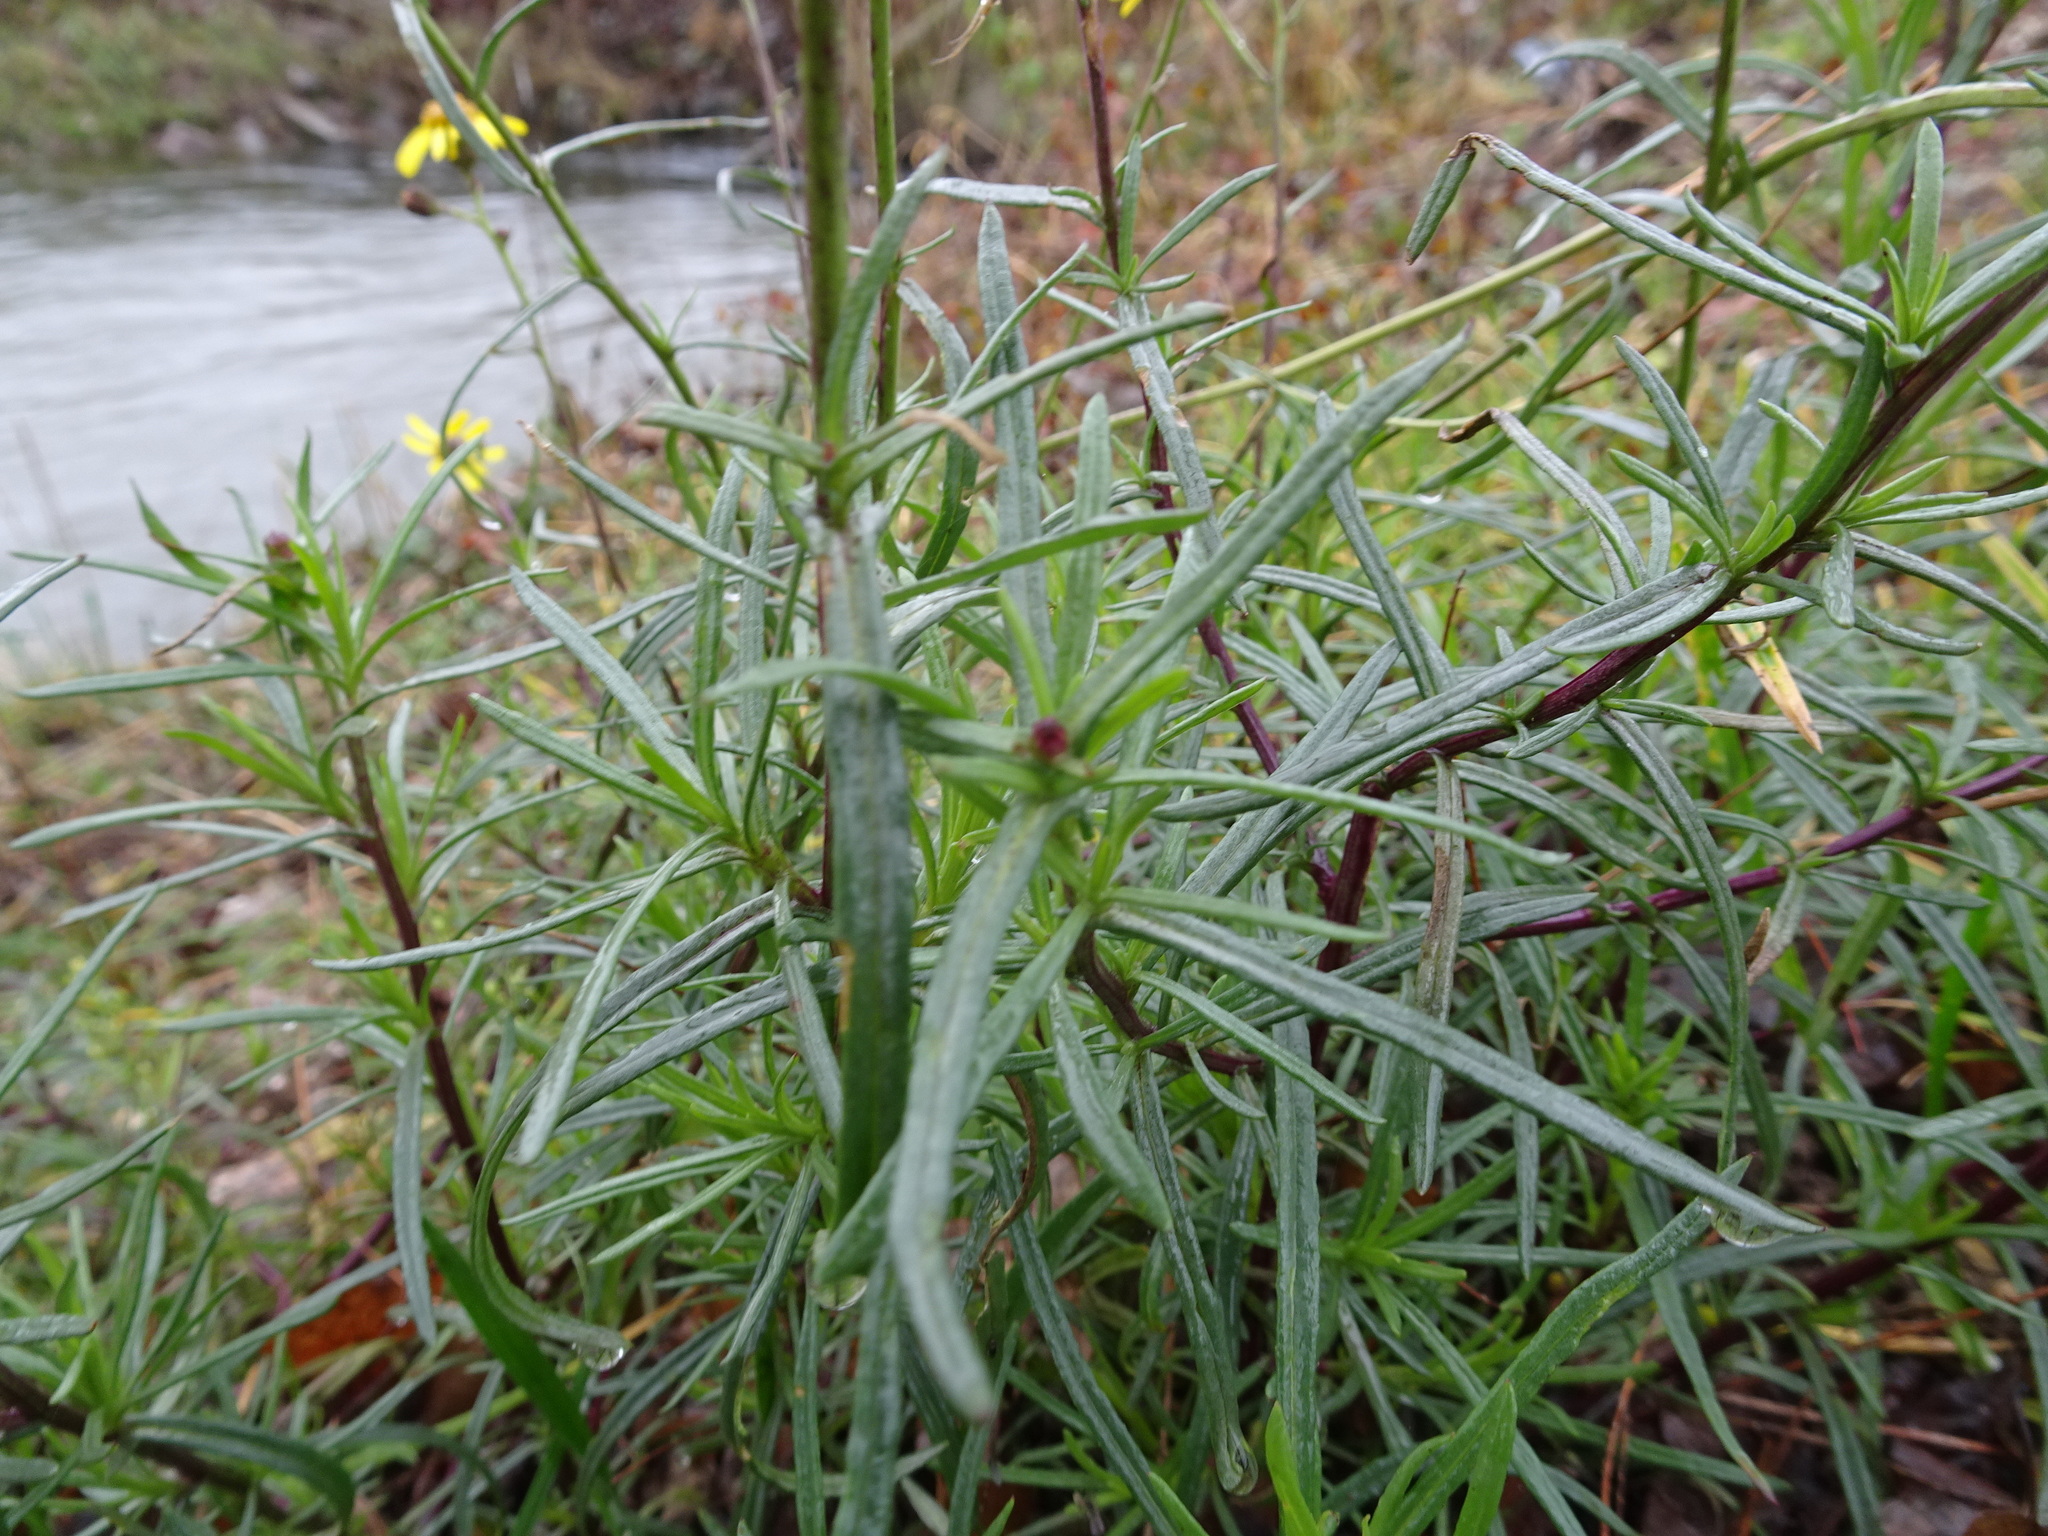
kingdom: Plantae
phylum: Tracheophyta
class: Magnoliopsida
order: Asterales
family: Asteraceae
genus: Senecio
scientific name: Senecio inaequidens
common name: Narrow-leaved ragwort
